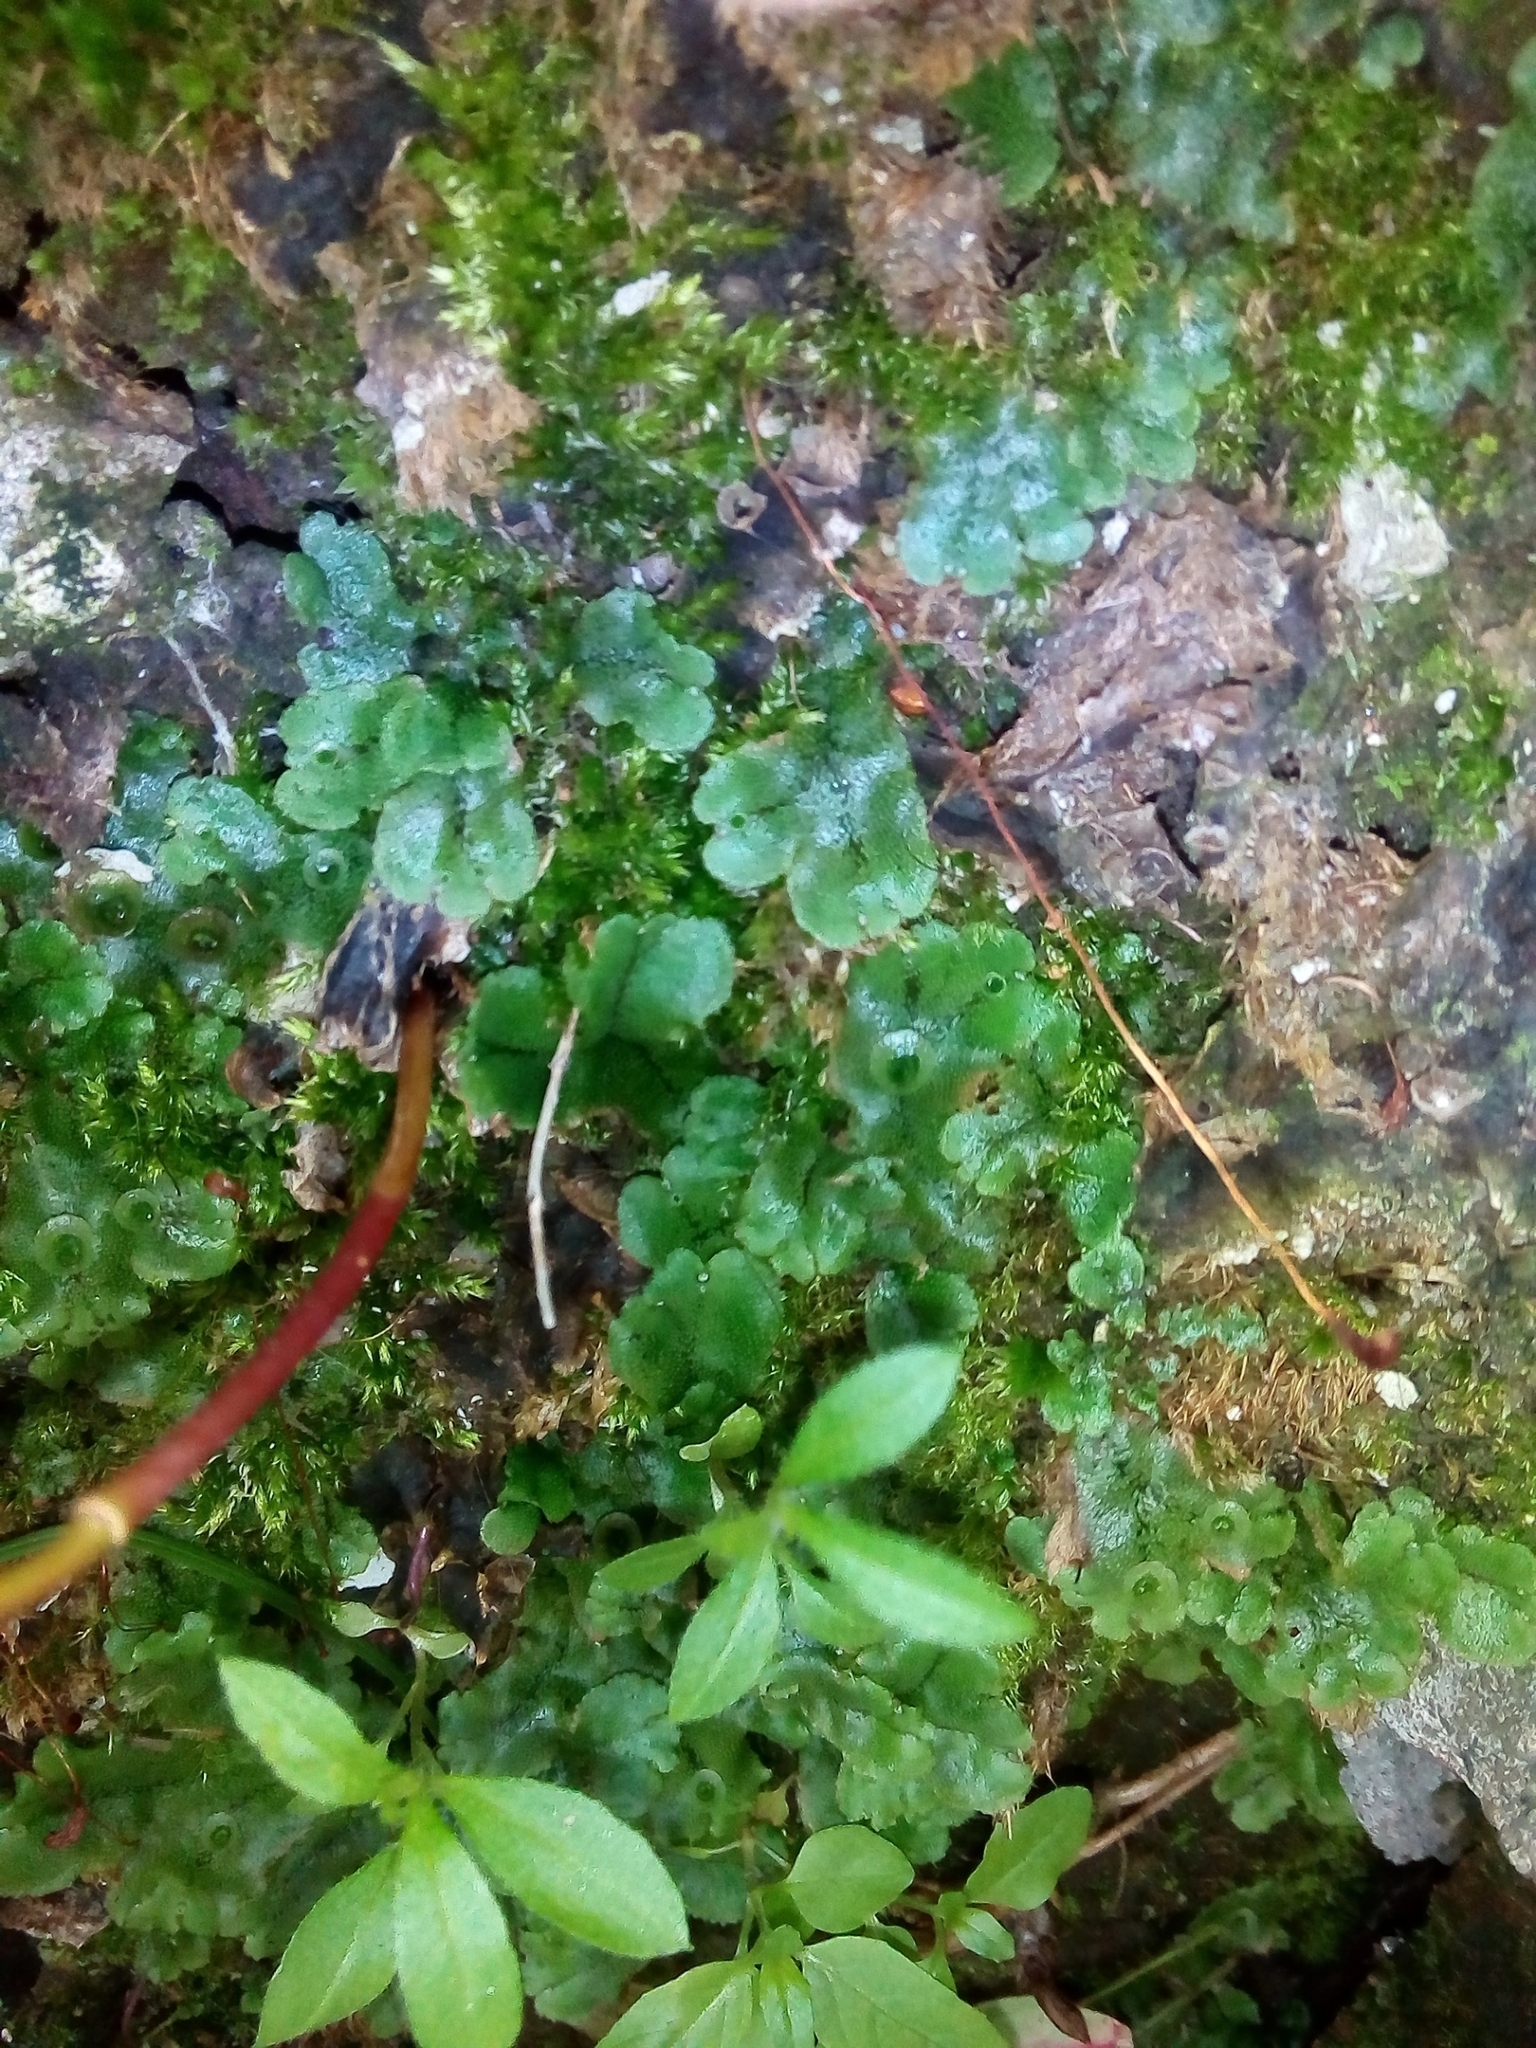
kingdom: Plantae
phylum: Marchantiophyta
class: Marchantiopsida
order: Marchantiales
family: Marchantiaceae
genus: Marchantia
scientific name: Marchantia polymorpha
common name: Common liverwort
